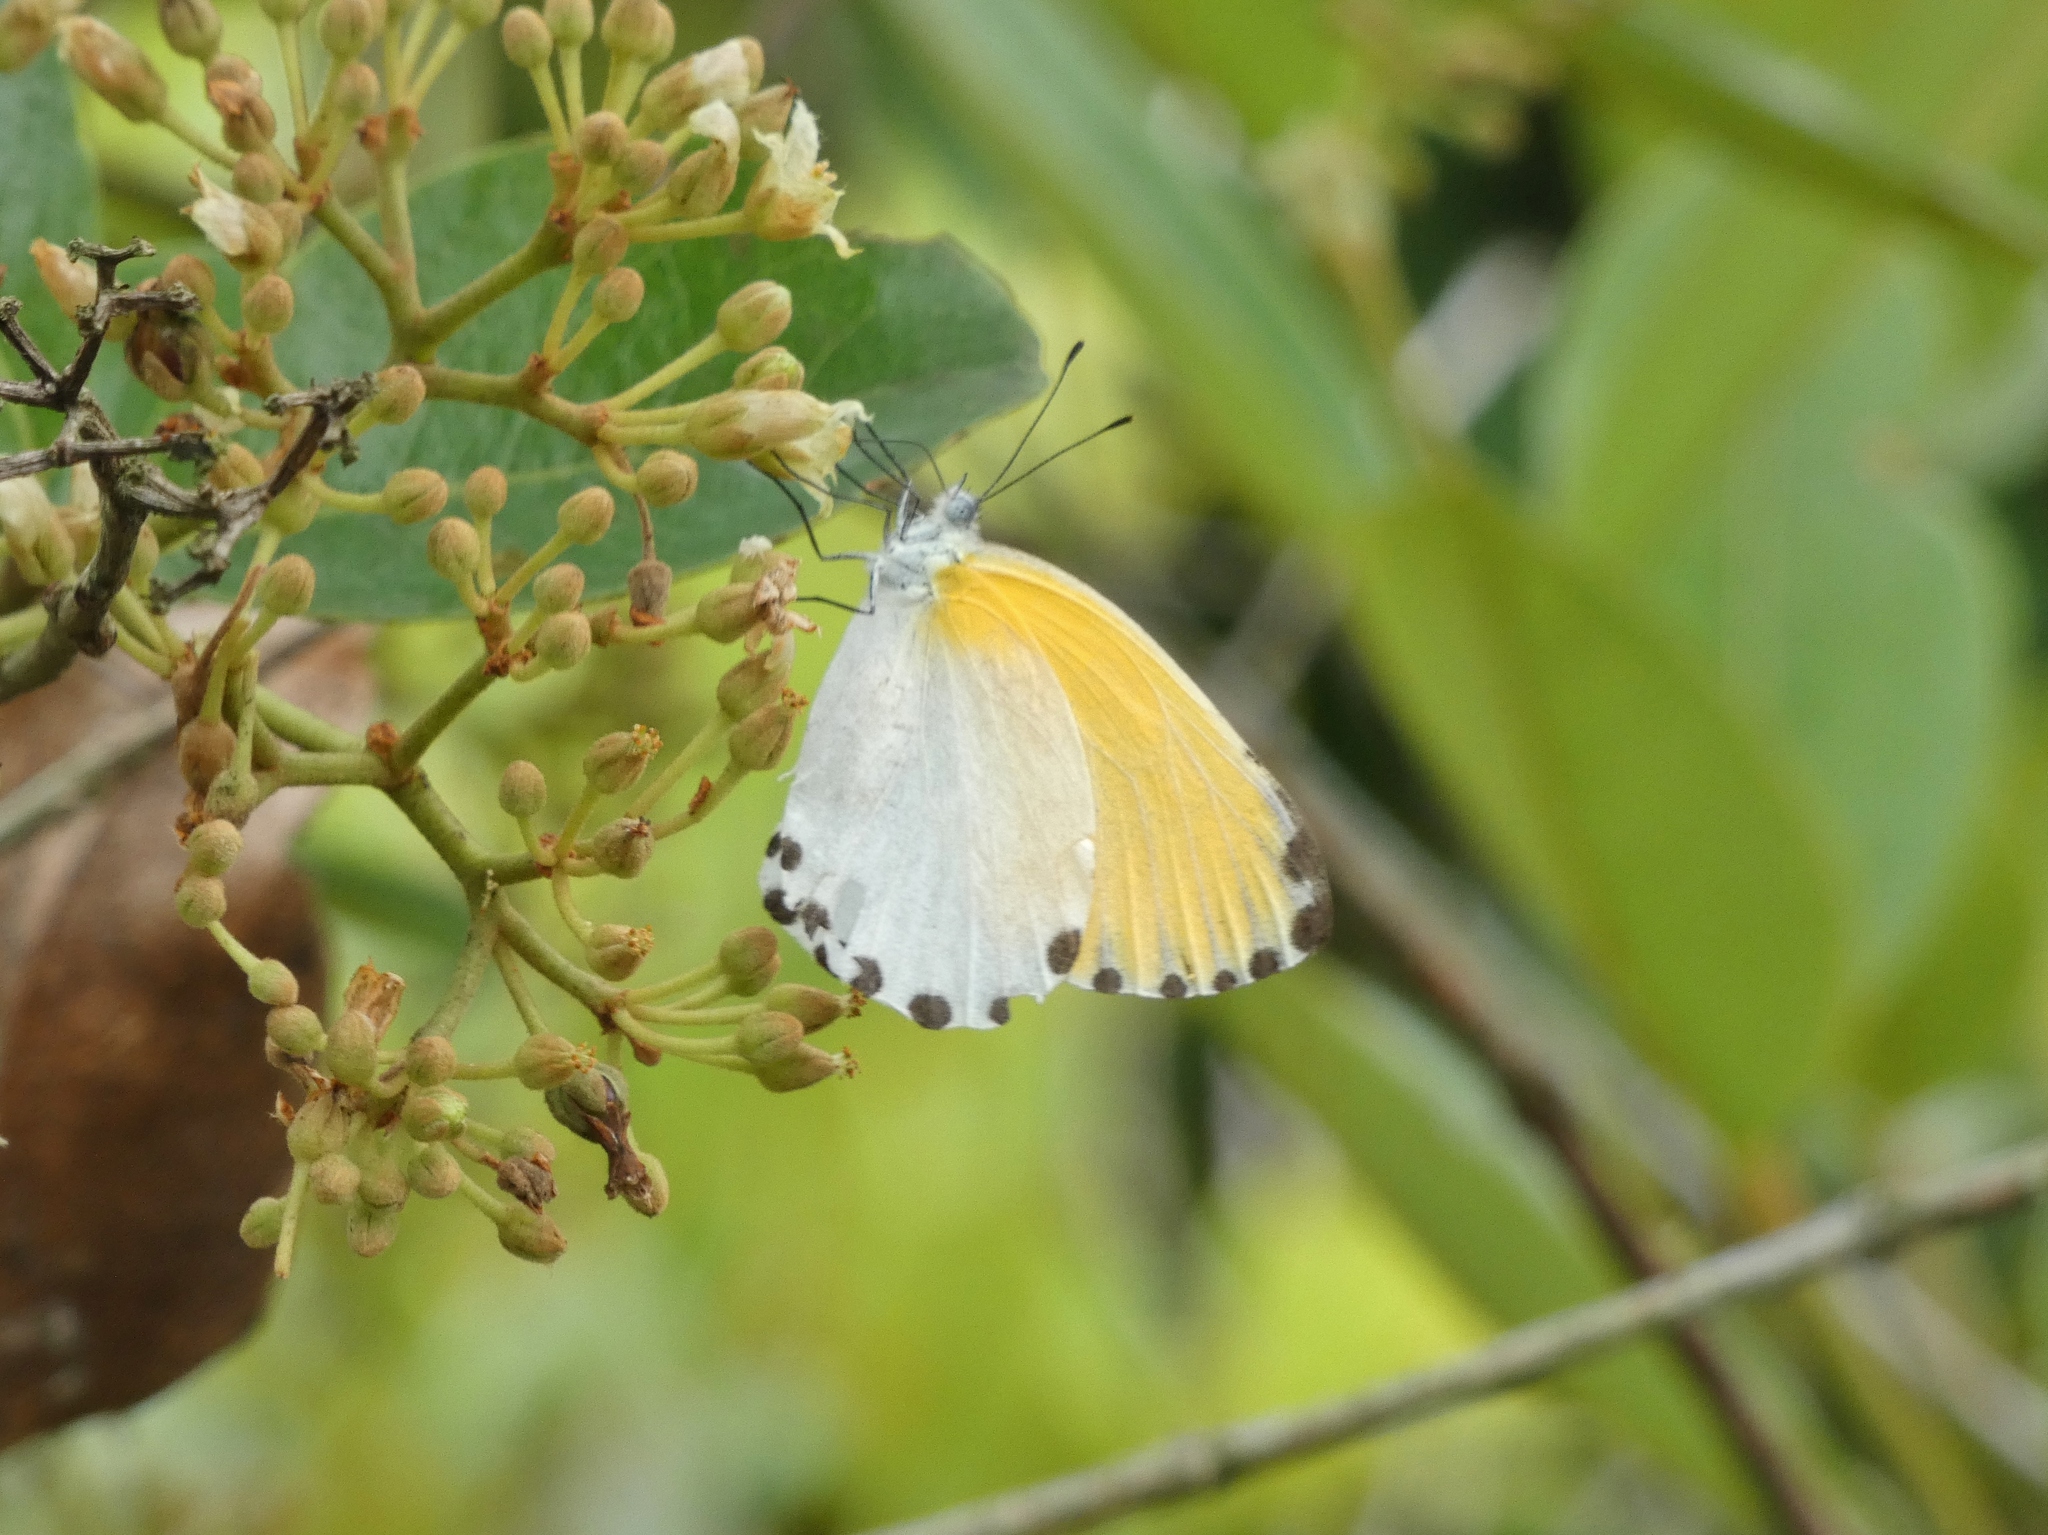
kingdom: Animalia
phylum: Arthropoda
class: Insecta
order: Lepidoptera
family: Pieridae
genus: Mylothris
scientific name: Mylothris rhodope
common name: Rhodope
